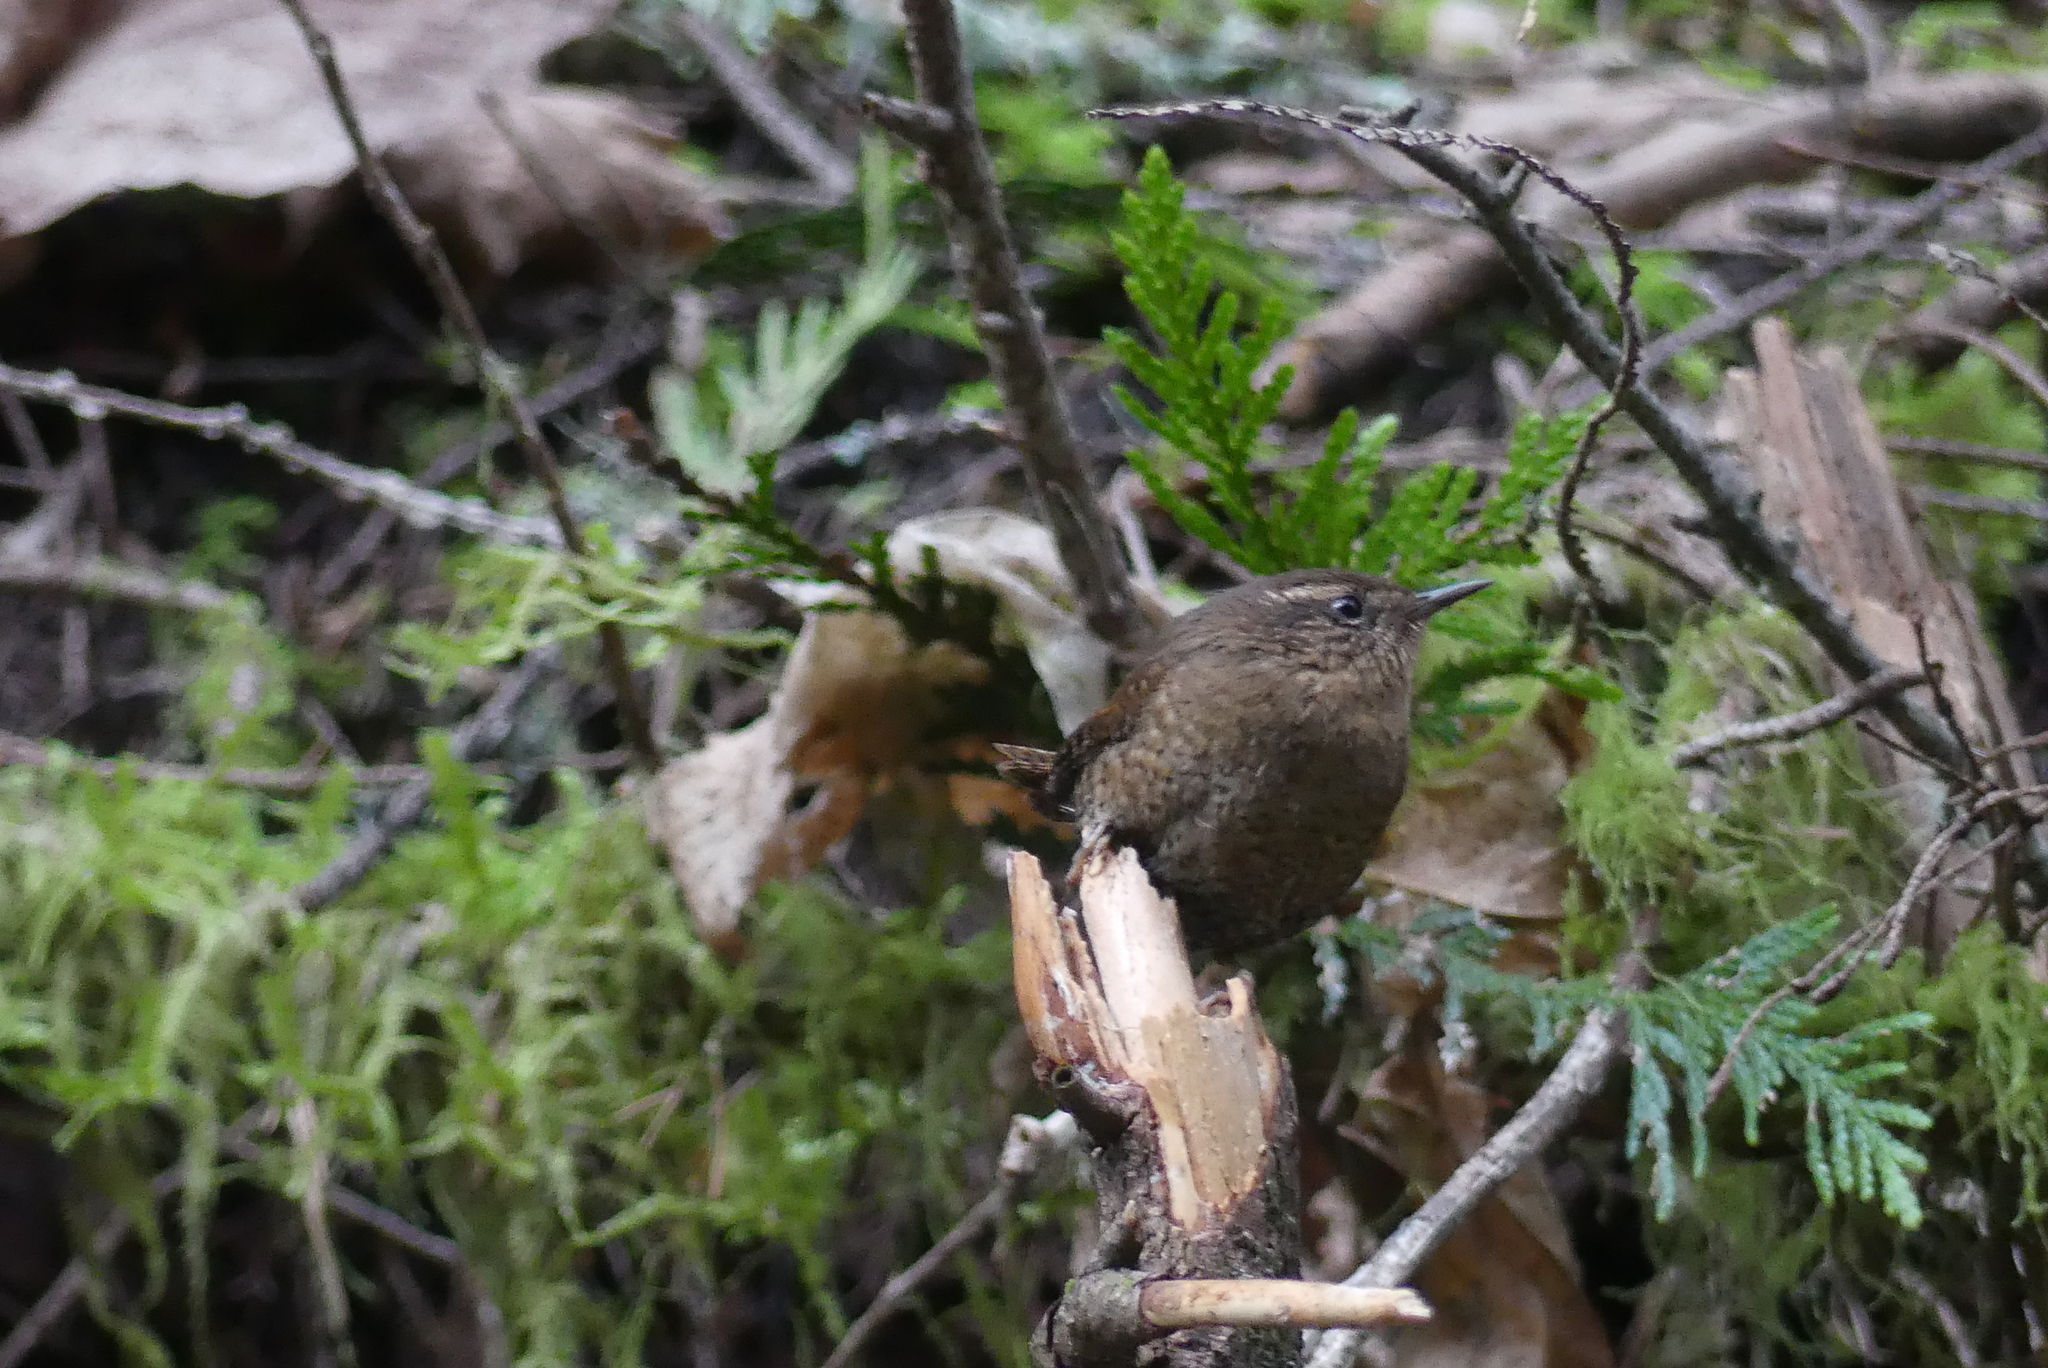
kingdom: Animalia
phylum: Chordata
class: Aves
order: Passeriformes
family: Troglodytidae
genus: Troglodytes
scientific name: Troglodytes pacificus
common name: Pacific wren
